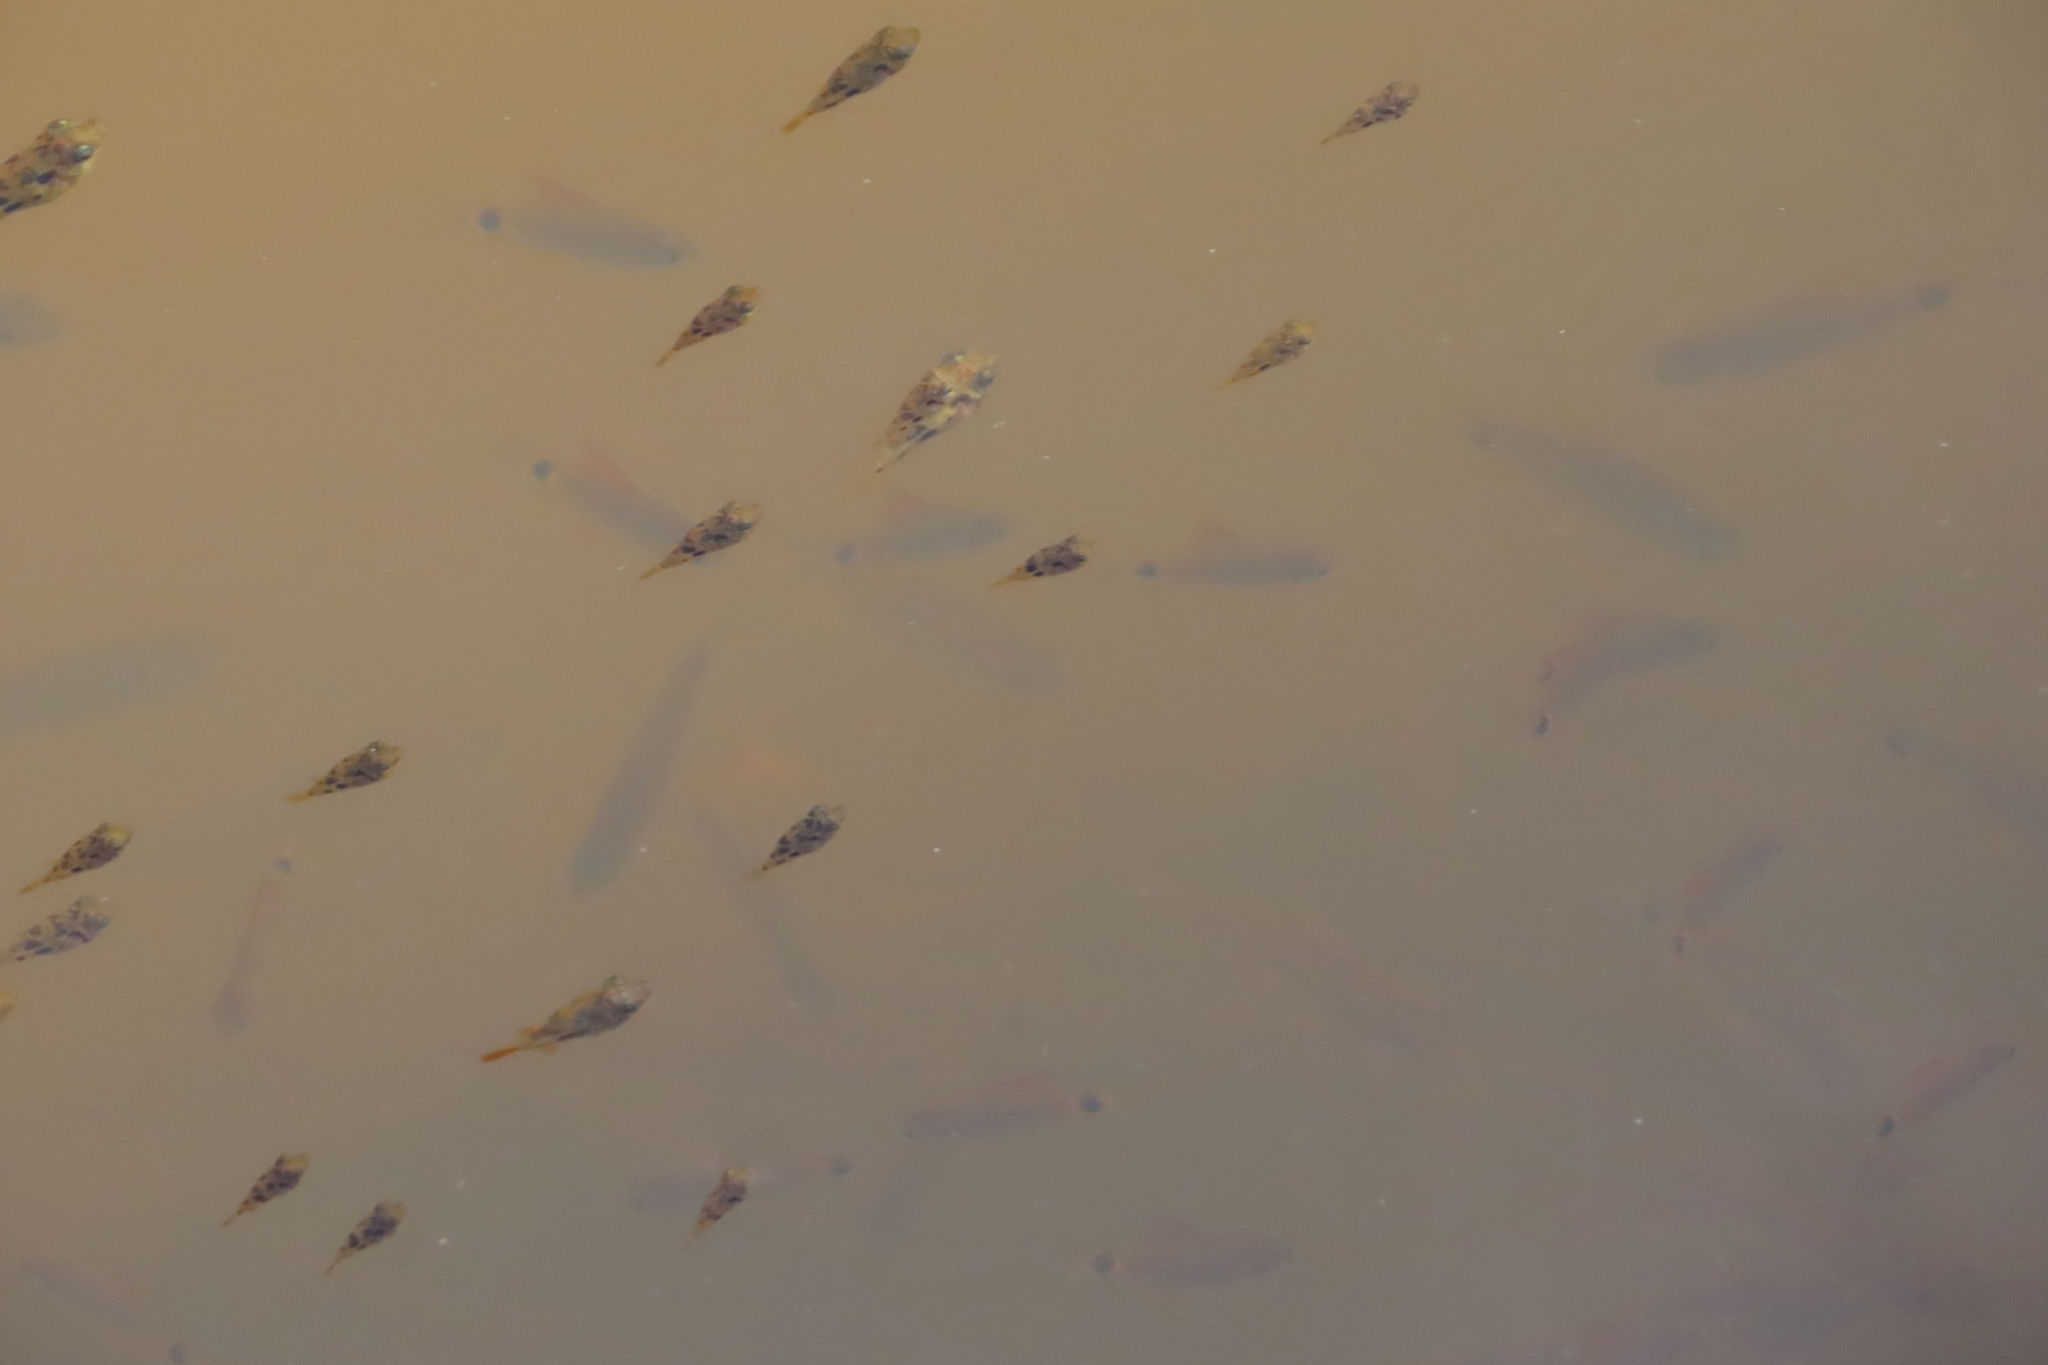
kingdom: Animalia
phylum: Chordata
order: Tetraodontiformes
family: Tetraodontidae
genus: Carinotetraodon
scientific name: Carinotetraodon travancoricus
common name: Dwarf indian puffer
